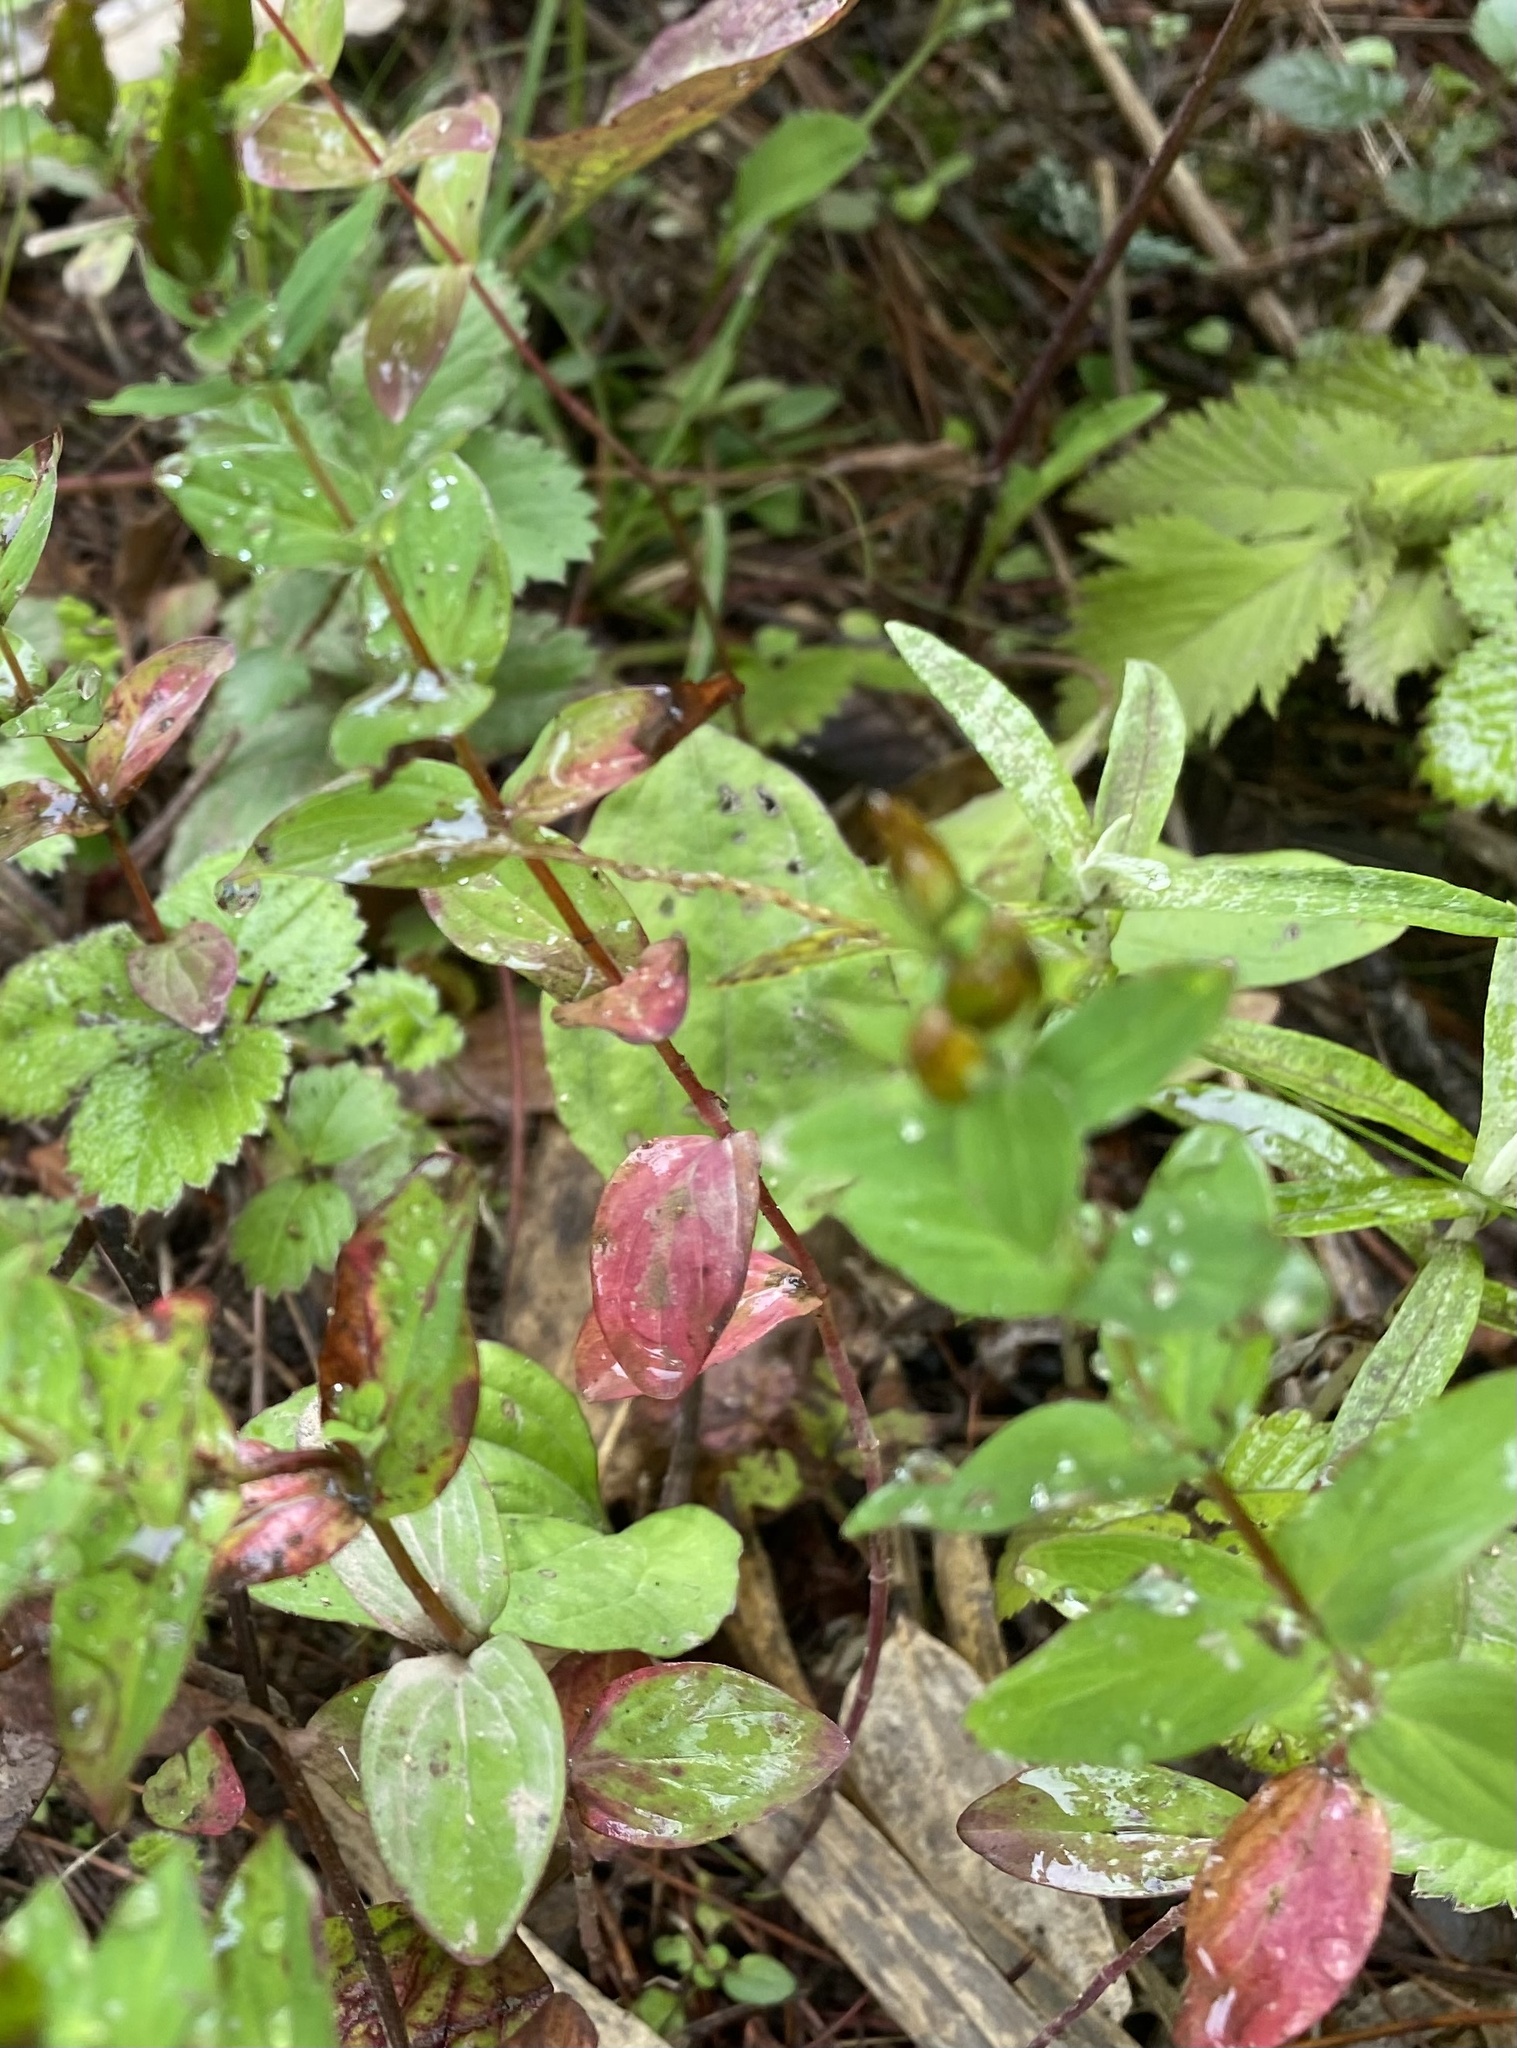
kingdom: Plantae
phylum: Tracheophyta
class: Magnoliopsida
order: Malpighiales
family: Hypericaceae
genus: Hypericum
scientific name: Hypericum kamtschaticum
